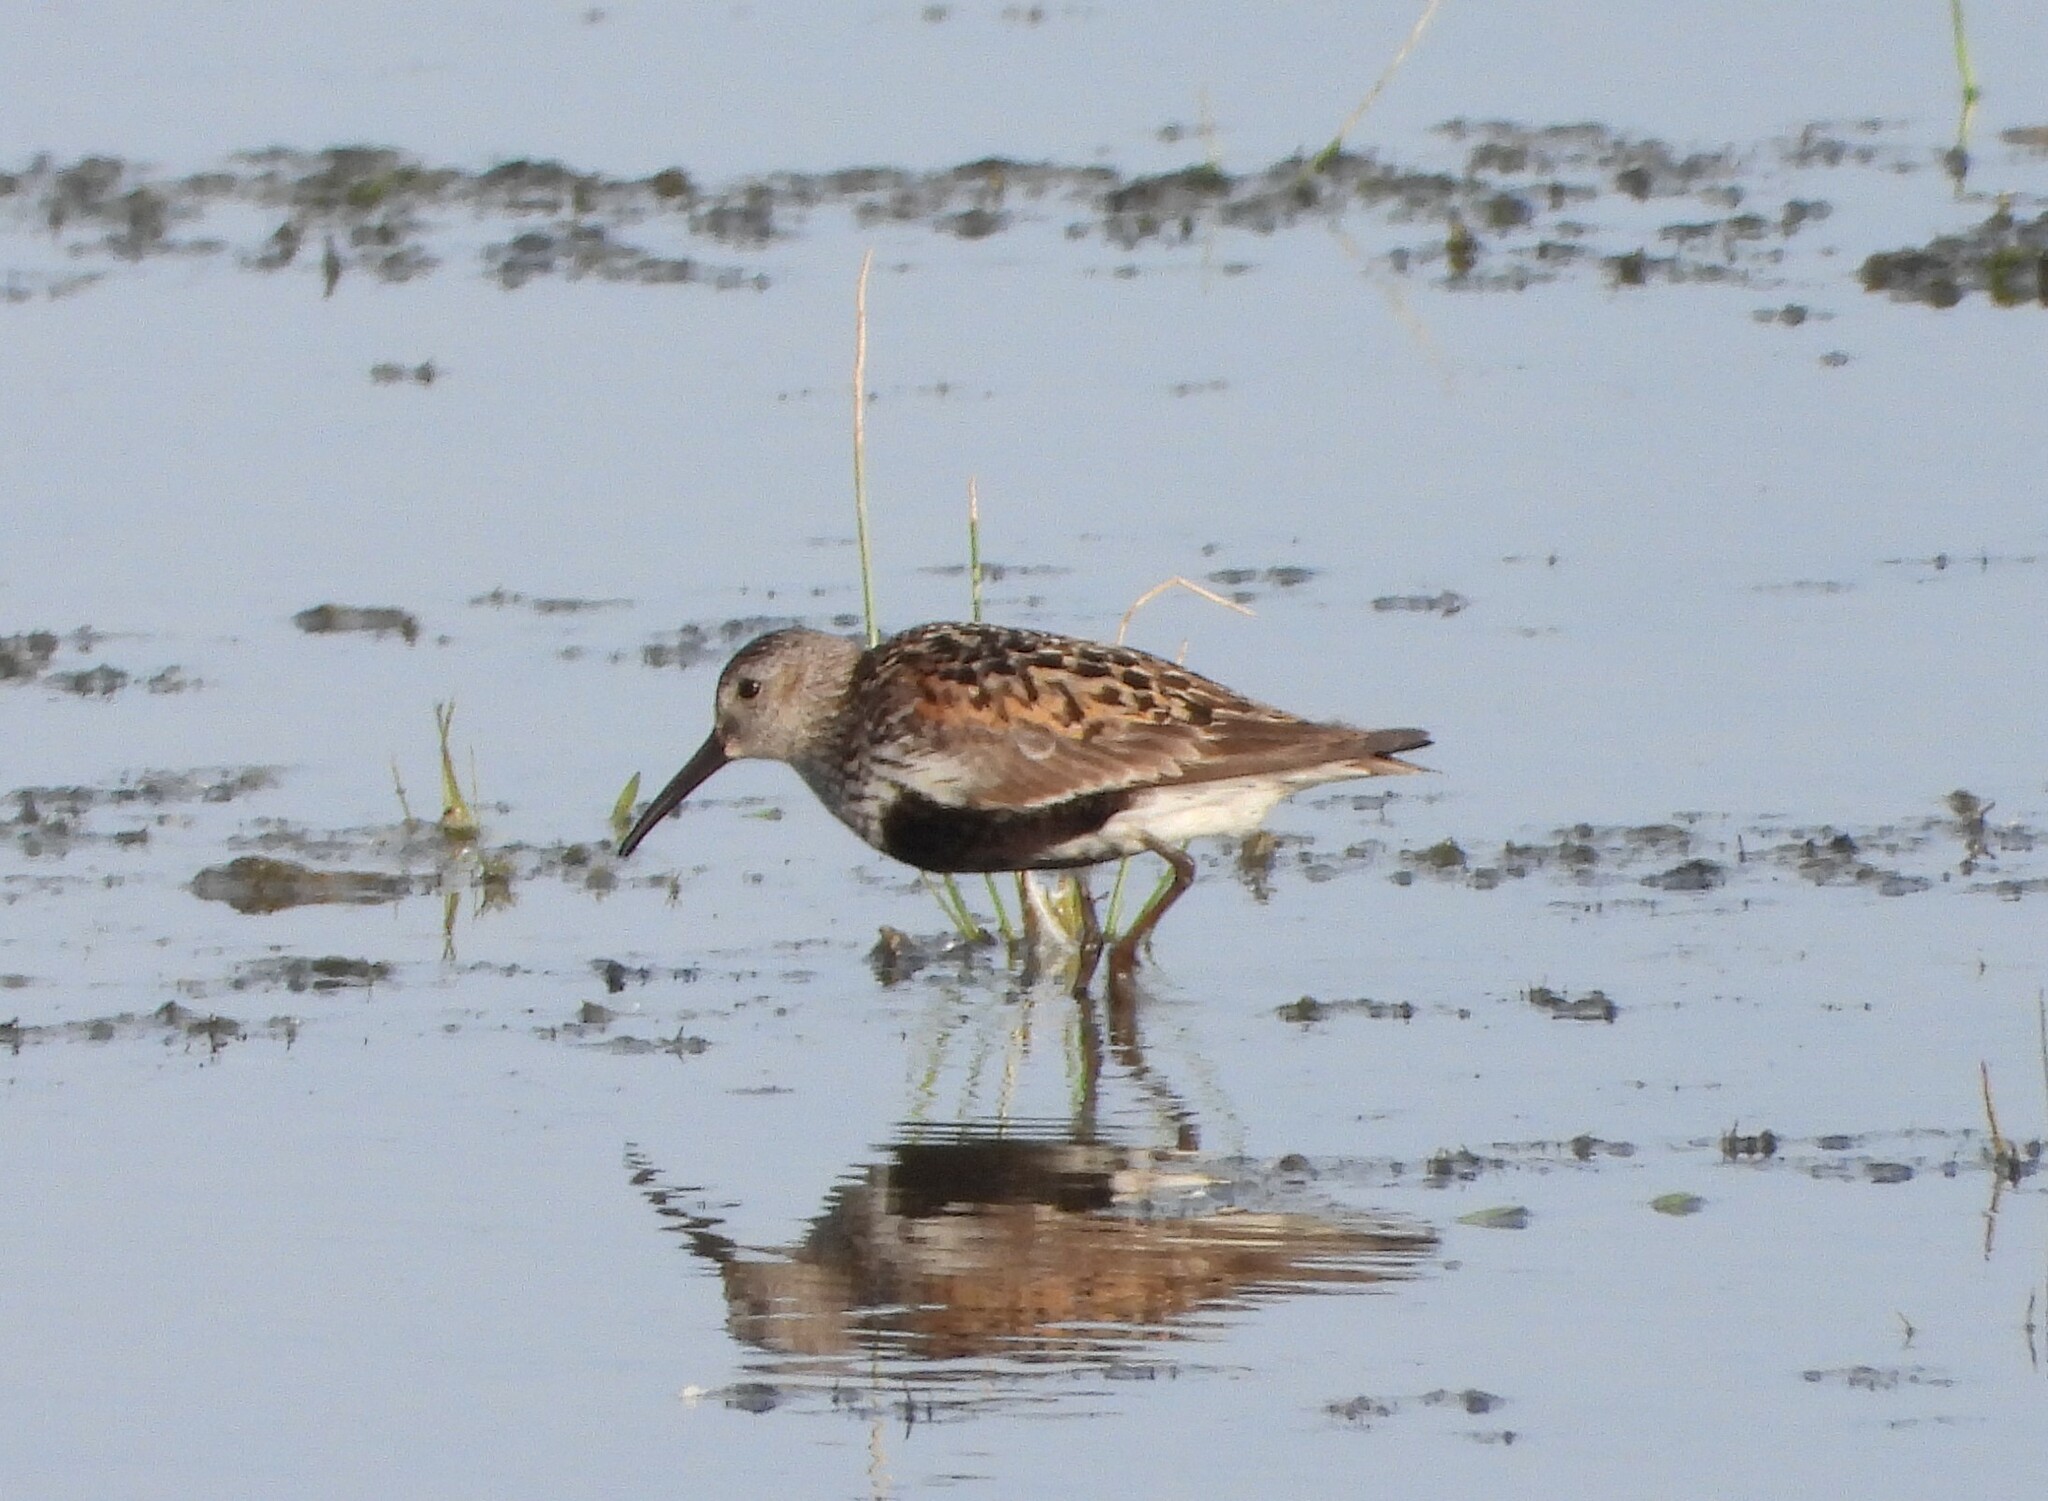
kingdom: Animalia
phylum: Chordata
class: Aves
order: Charadriiformes
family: Scolopacidae
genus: Calidris
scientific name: Calidris alpina
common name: Dunlin
